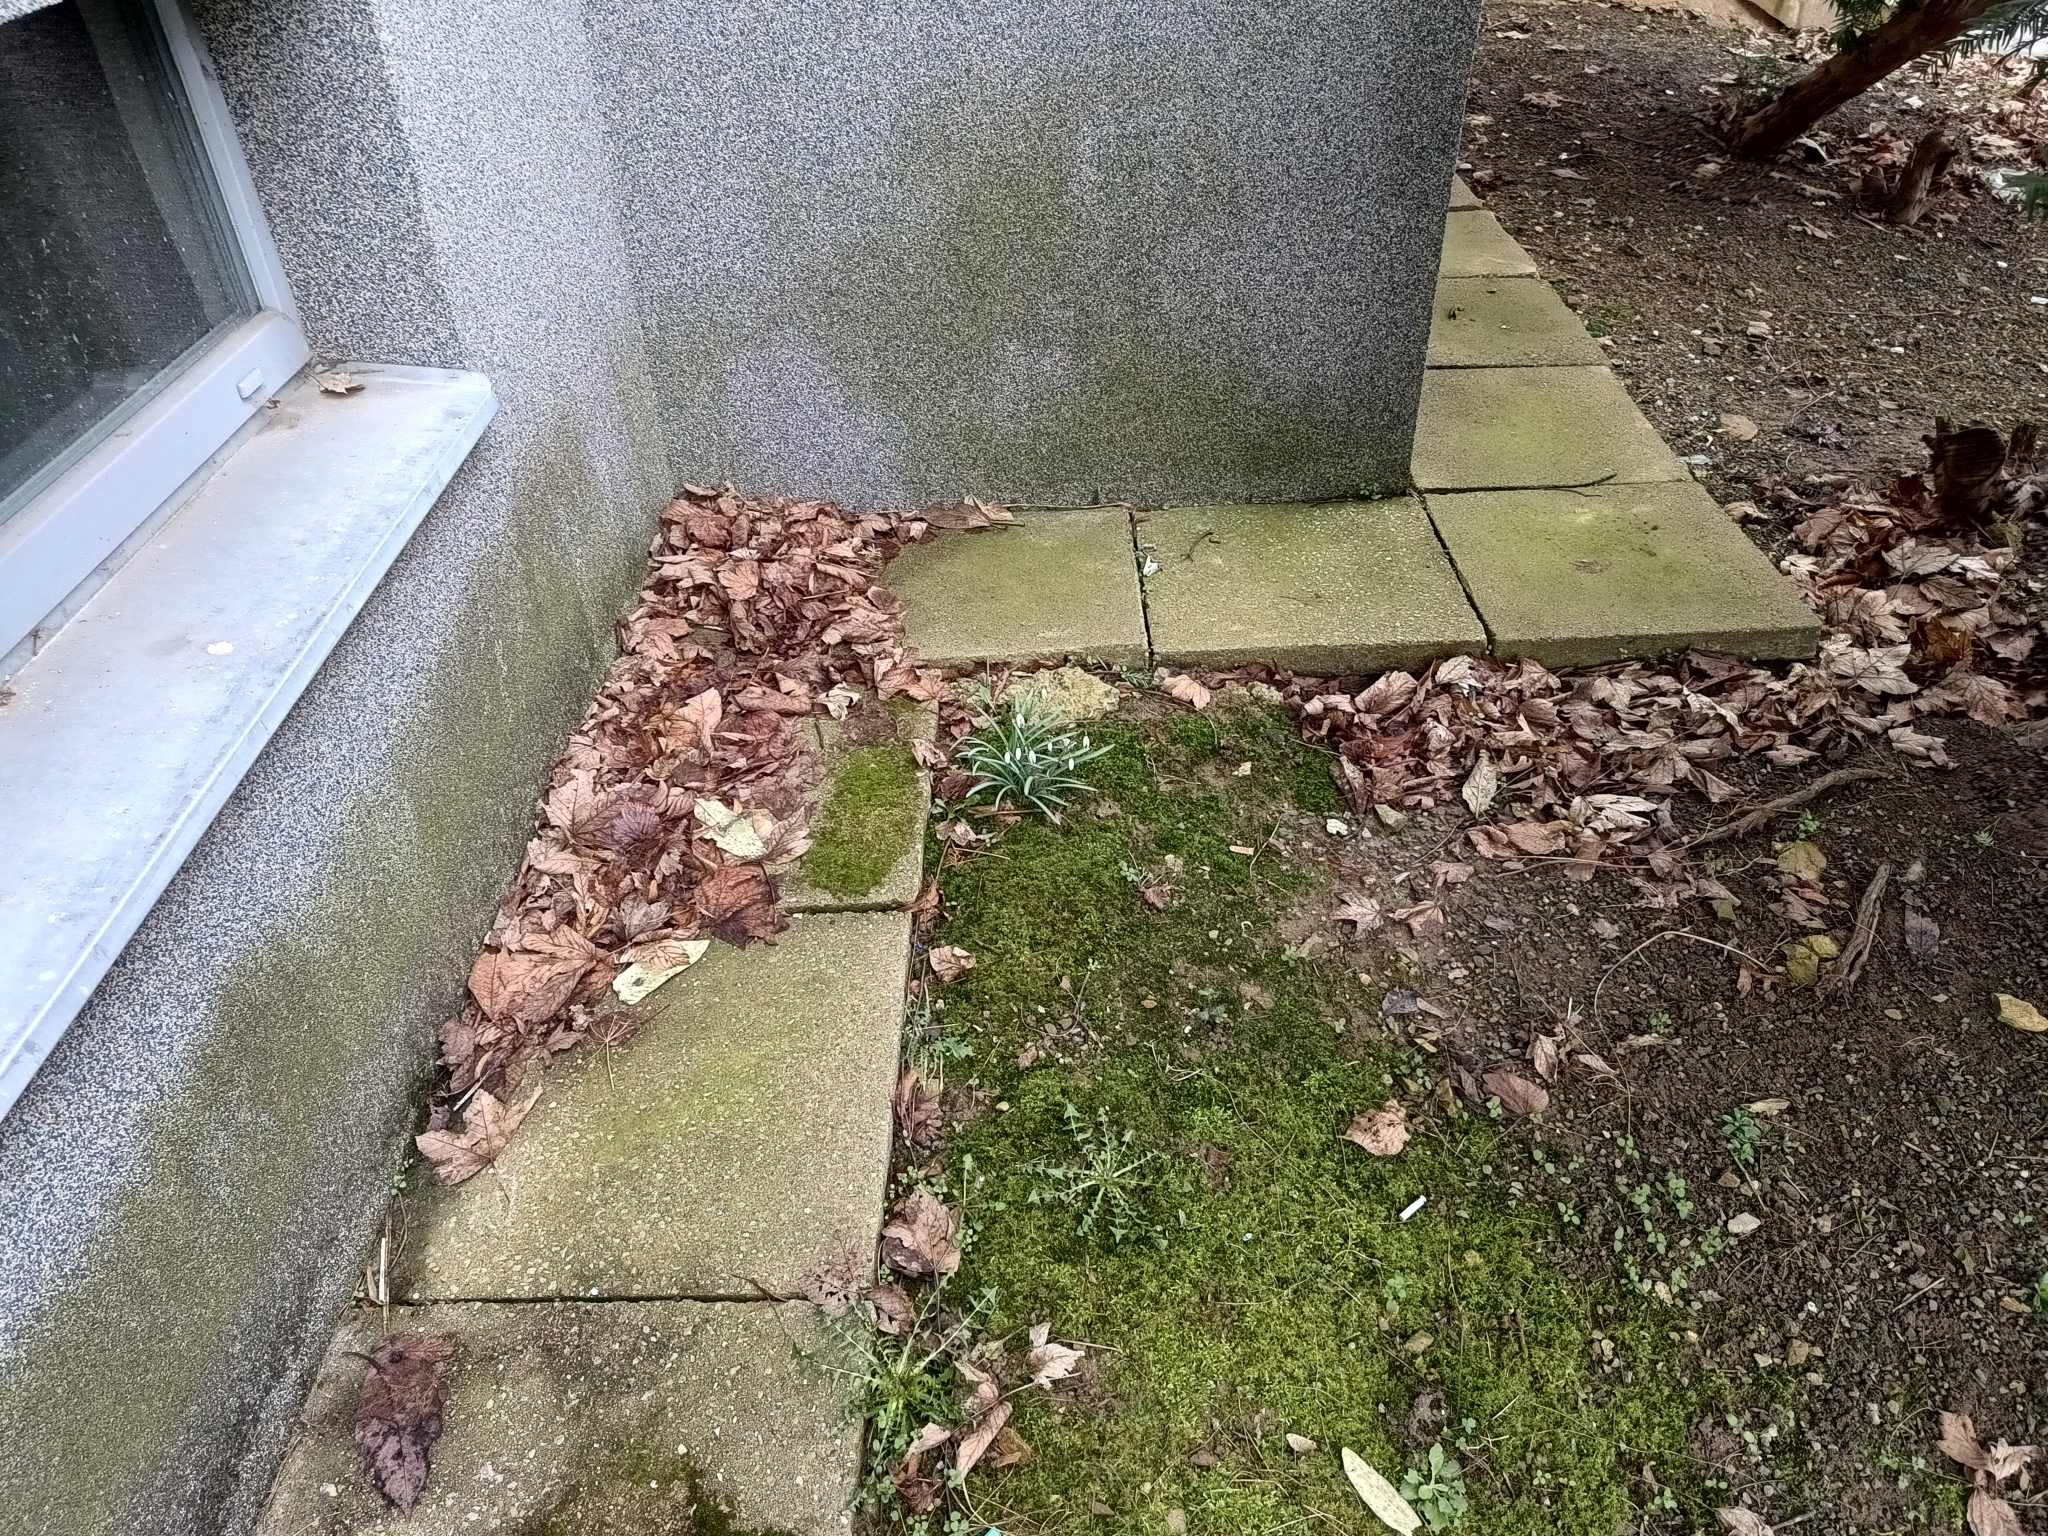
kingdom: Plantae
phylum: Tracheophyta
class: Liliopsida
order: Asparagales
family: Amaryllidaceae
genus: Galanthus
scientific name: Galanthus nivalis
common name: Snowdrop
